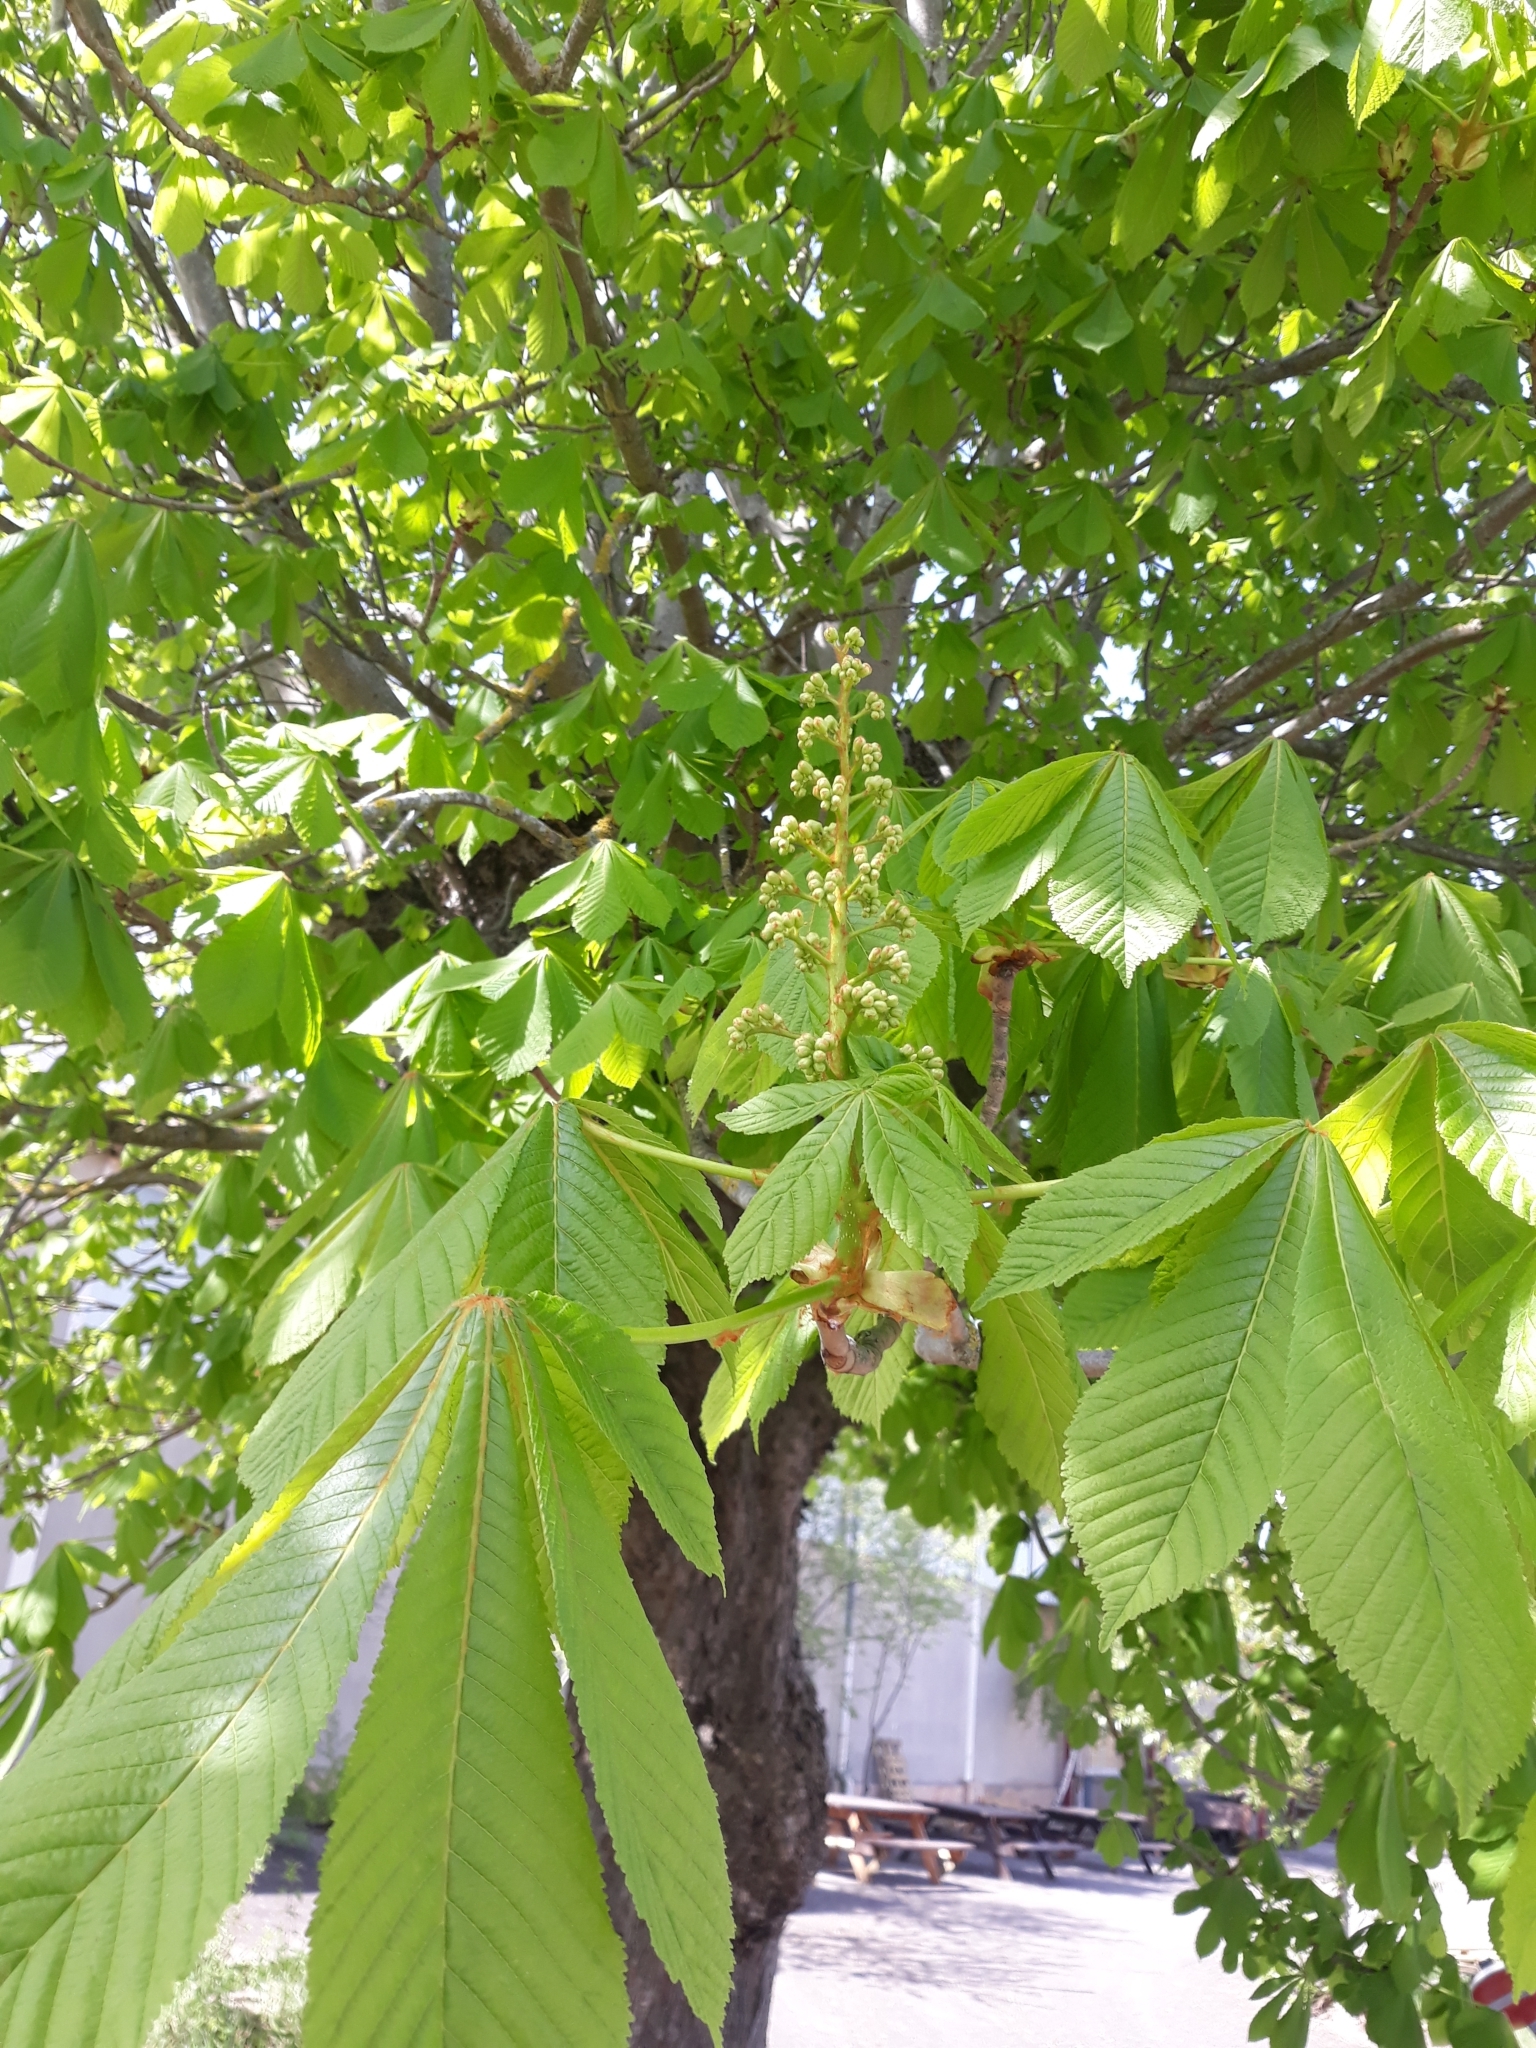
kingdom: Plantae
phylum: Tracheophyta
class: Magnoliopsida
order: Sapindales
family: Sapindaceae
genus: Aesculus
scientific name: Aesculus hippocastanum
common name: Horse-chestnut
